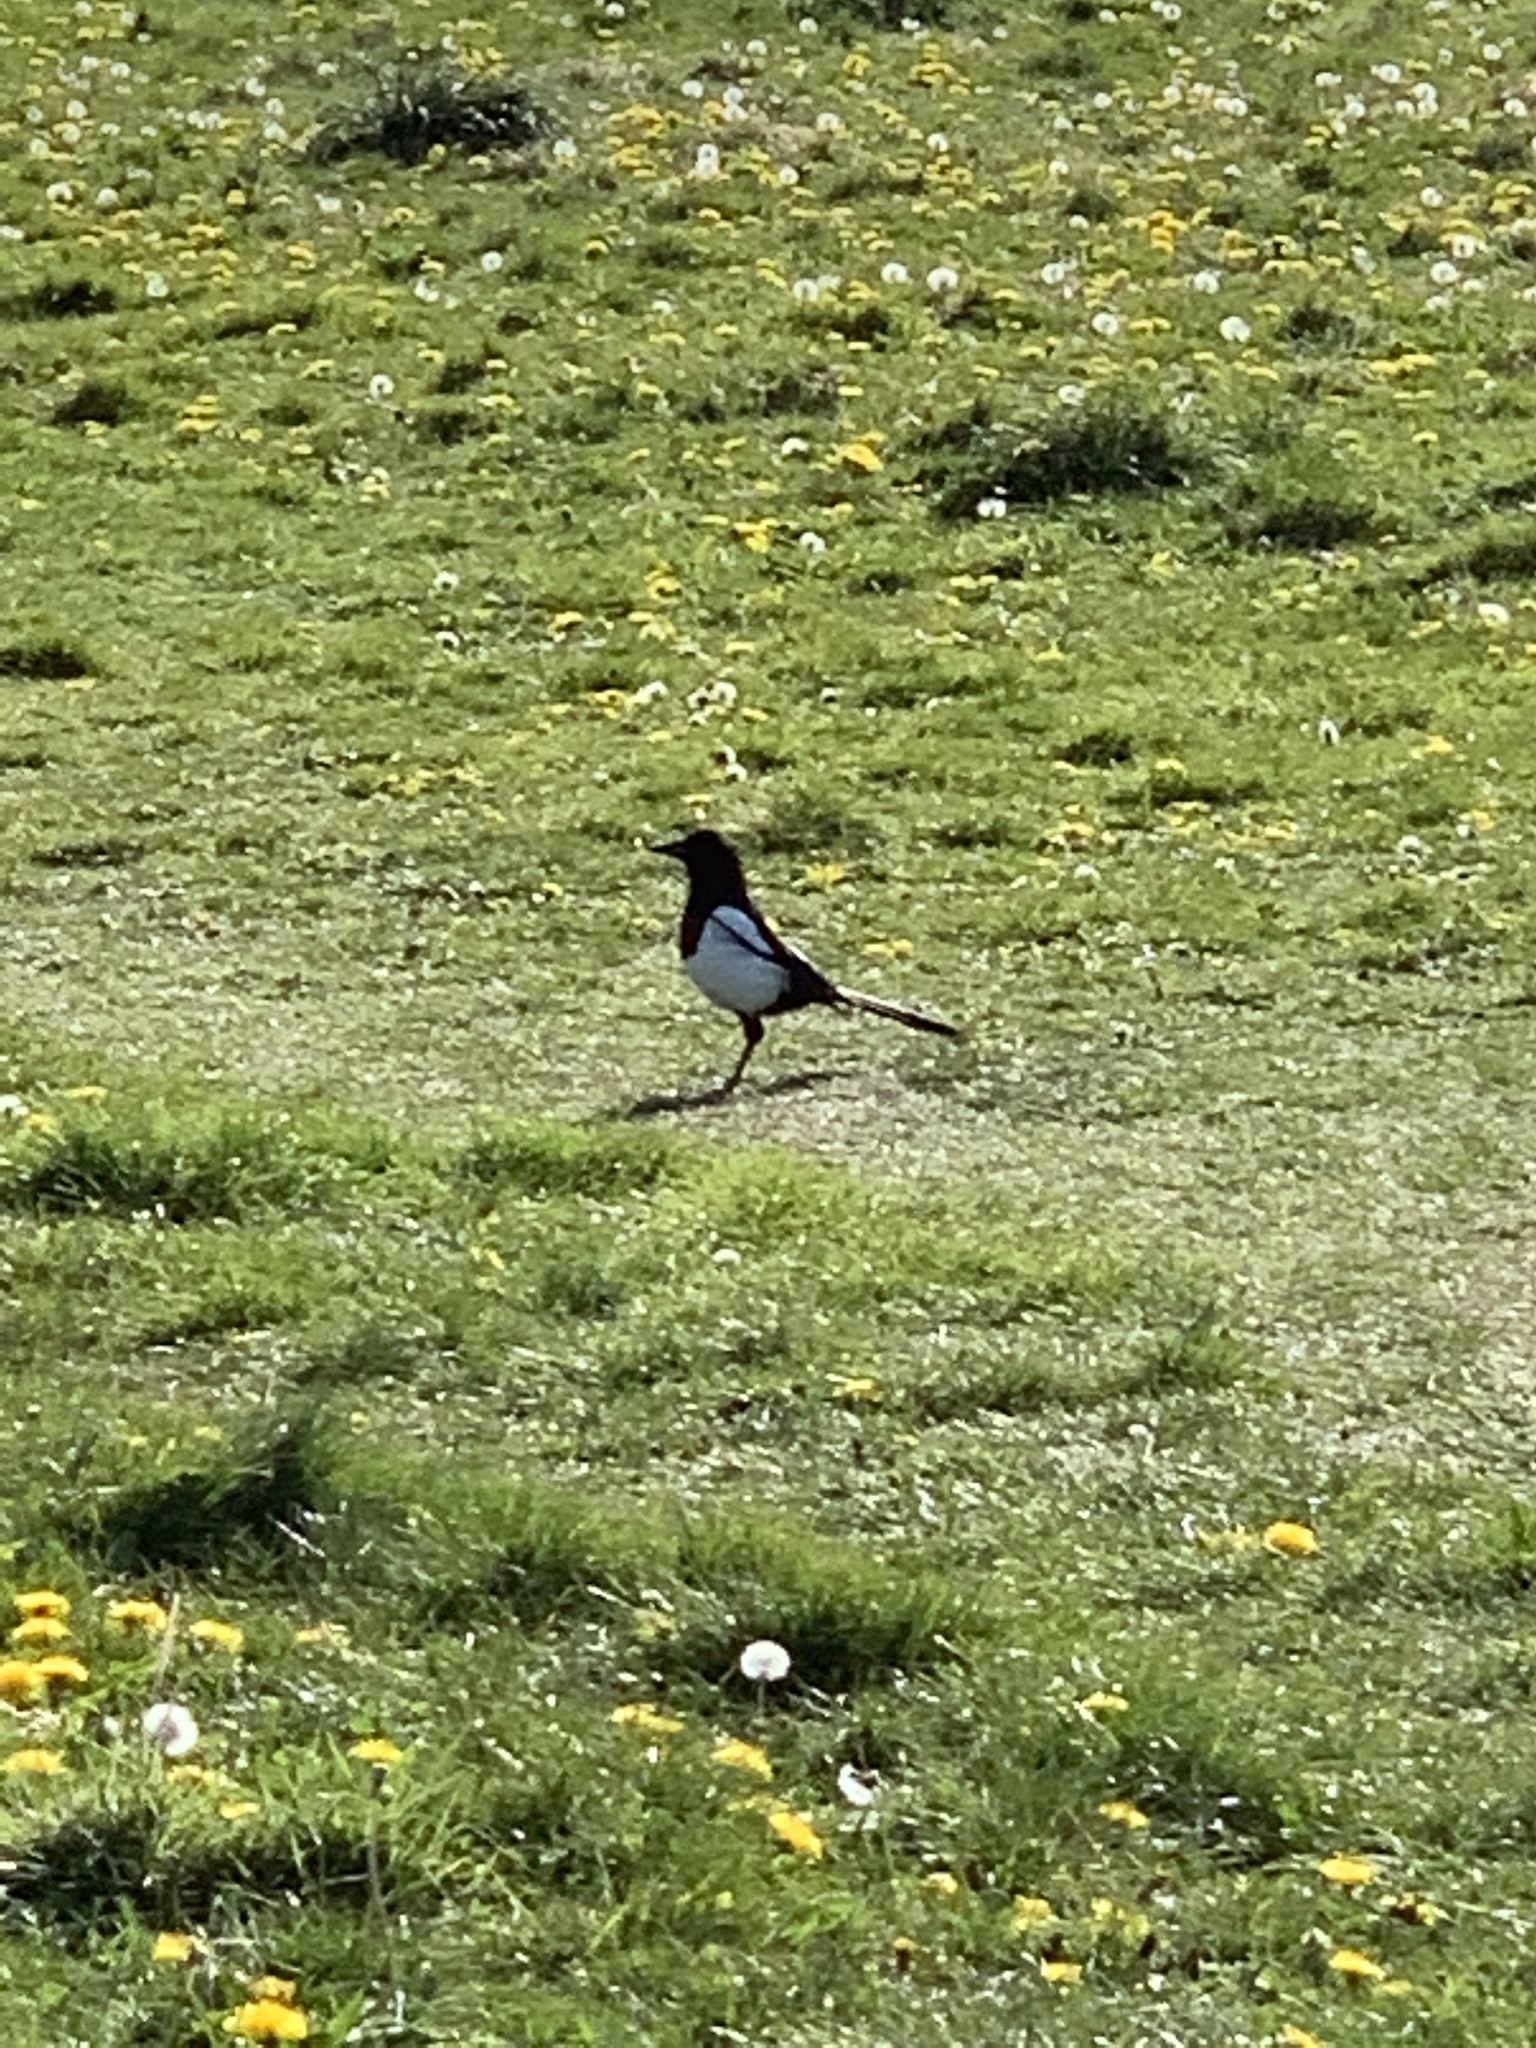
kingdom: Animalia
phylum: Chordata
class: Aves
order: Passeriformes
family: Corvidae
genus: Pica
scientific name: Pica pica
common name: Eurasian magpie
